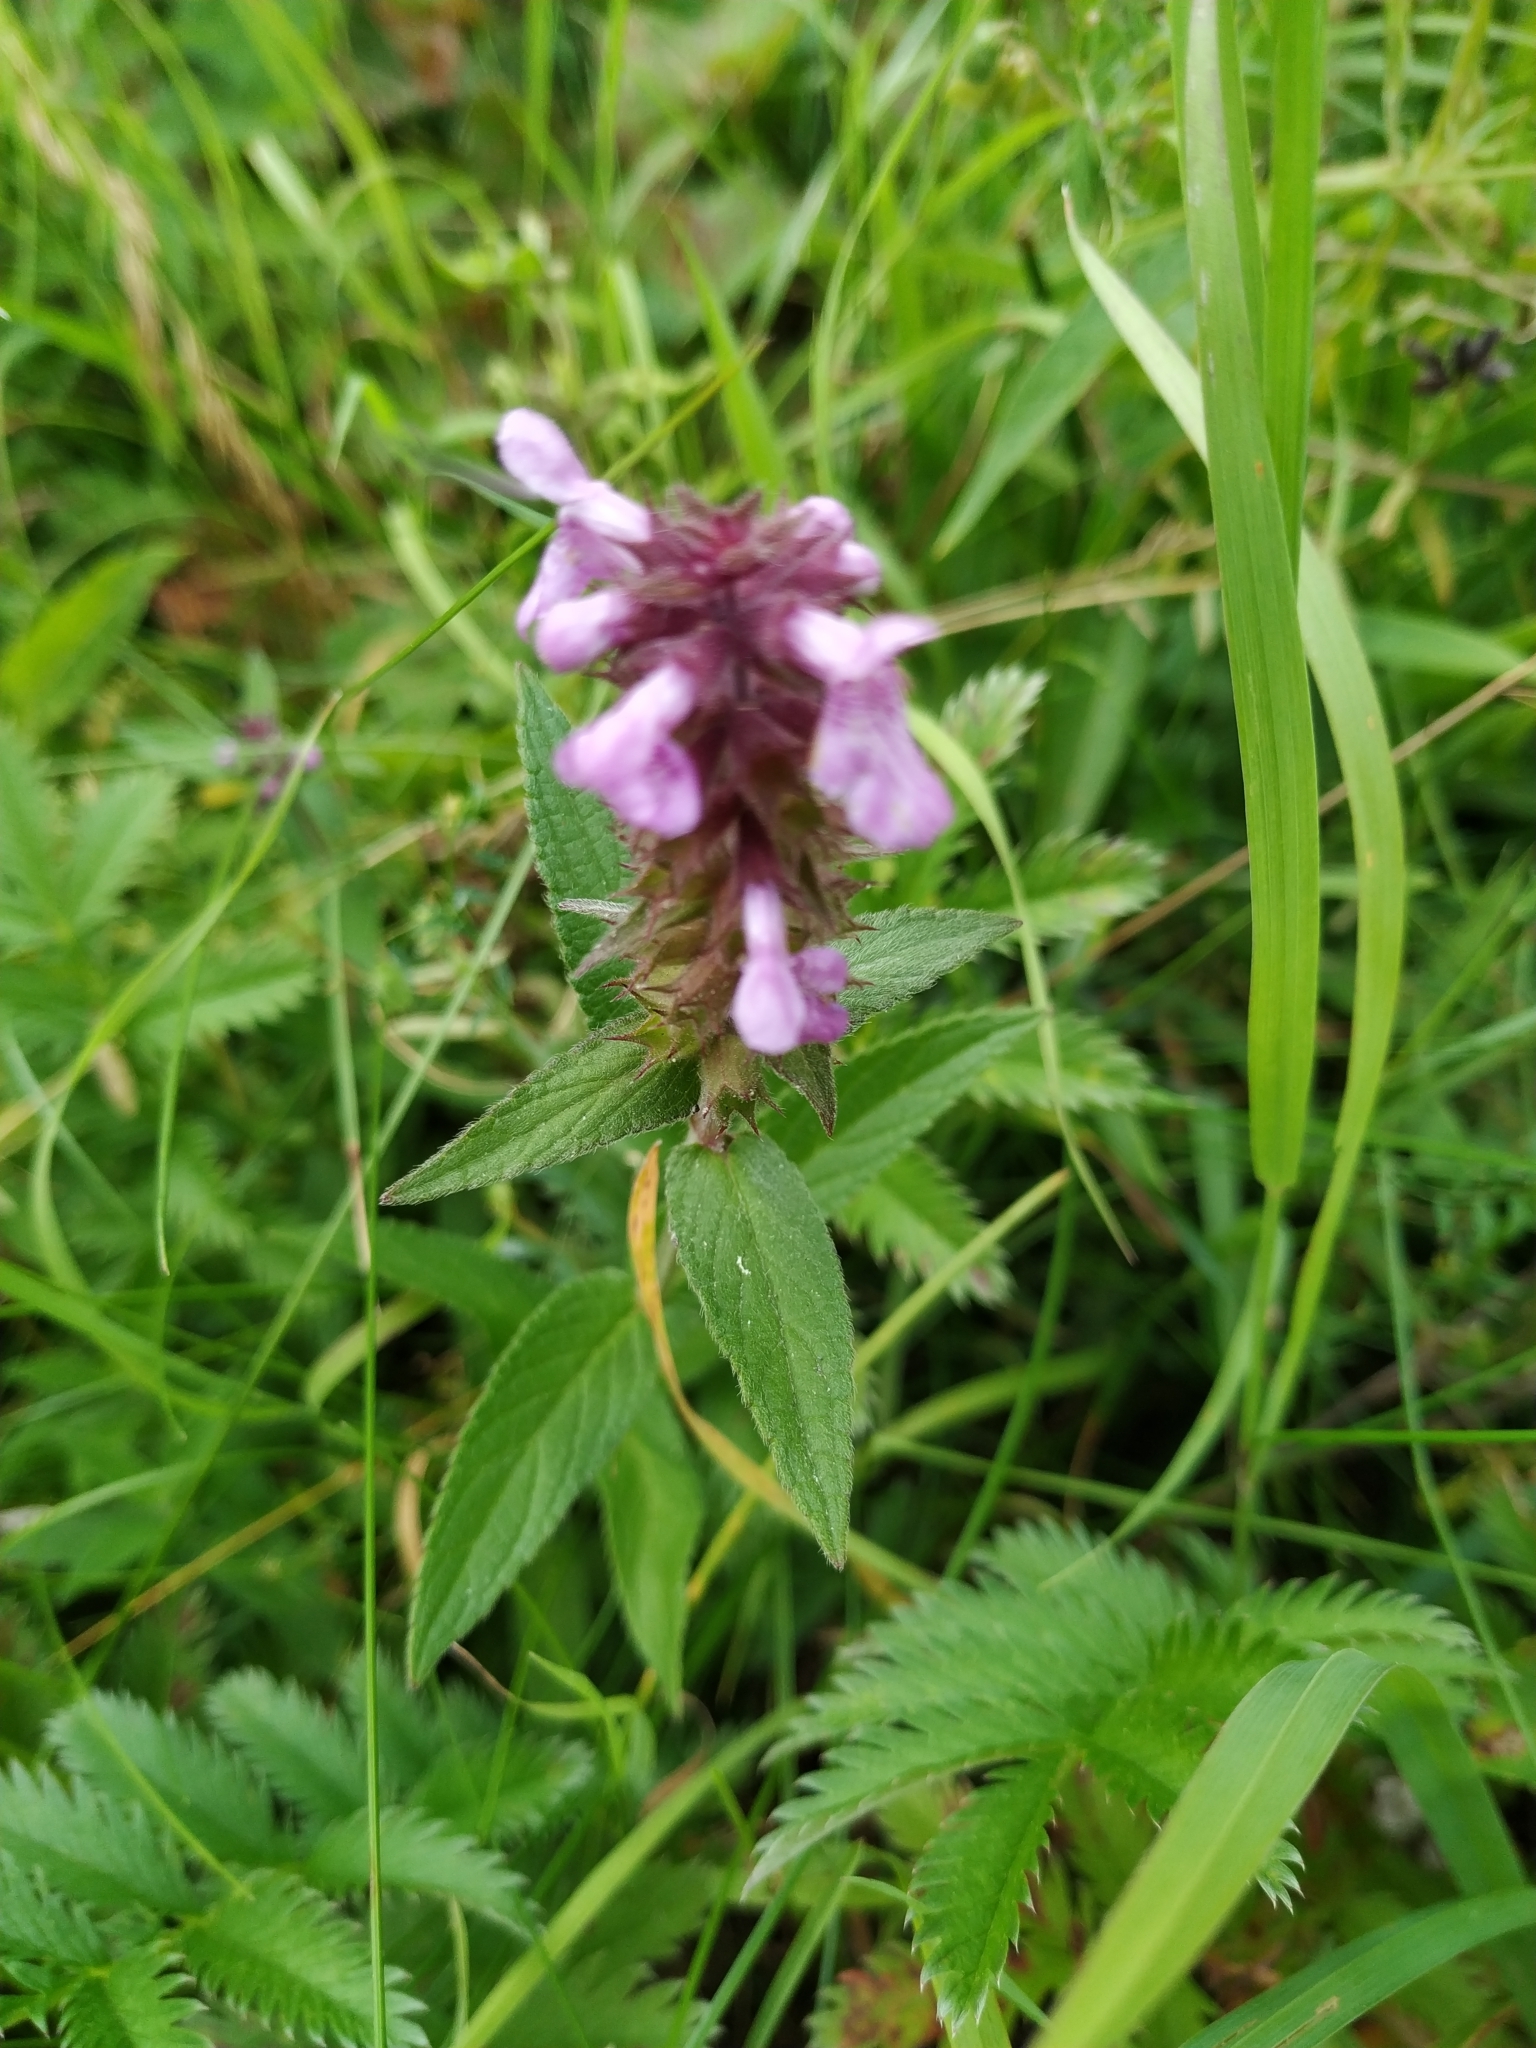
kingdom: Plantae
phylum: Tracheophyta
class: Magnoliopsida
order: Lamiales
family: Lamiaceae
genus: Stachys
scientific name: Stachys palustris
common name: Marsh woundwort
